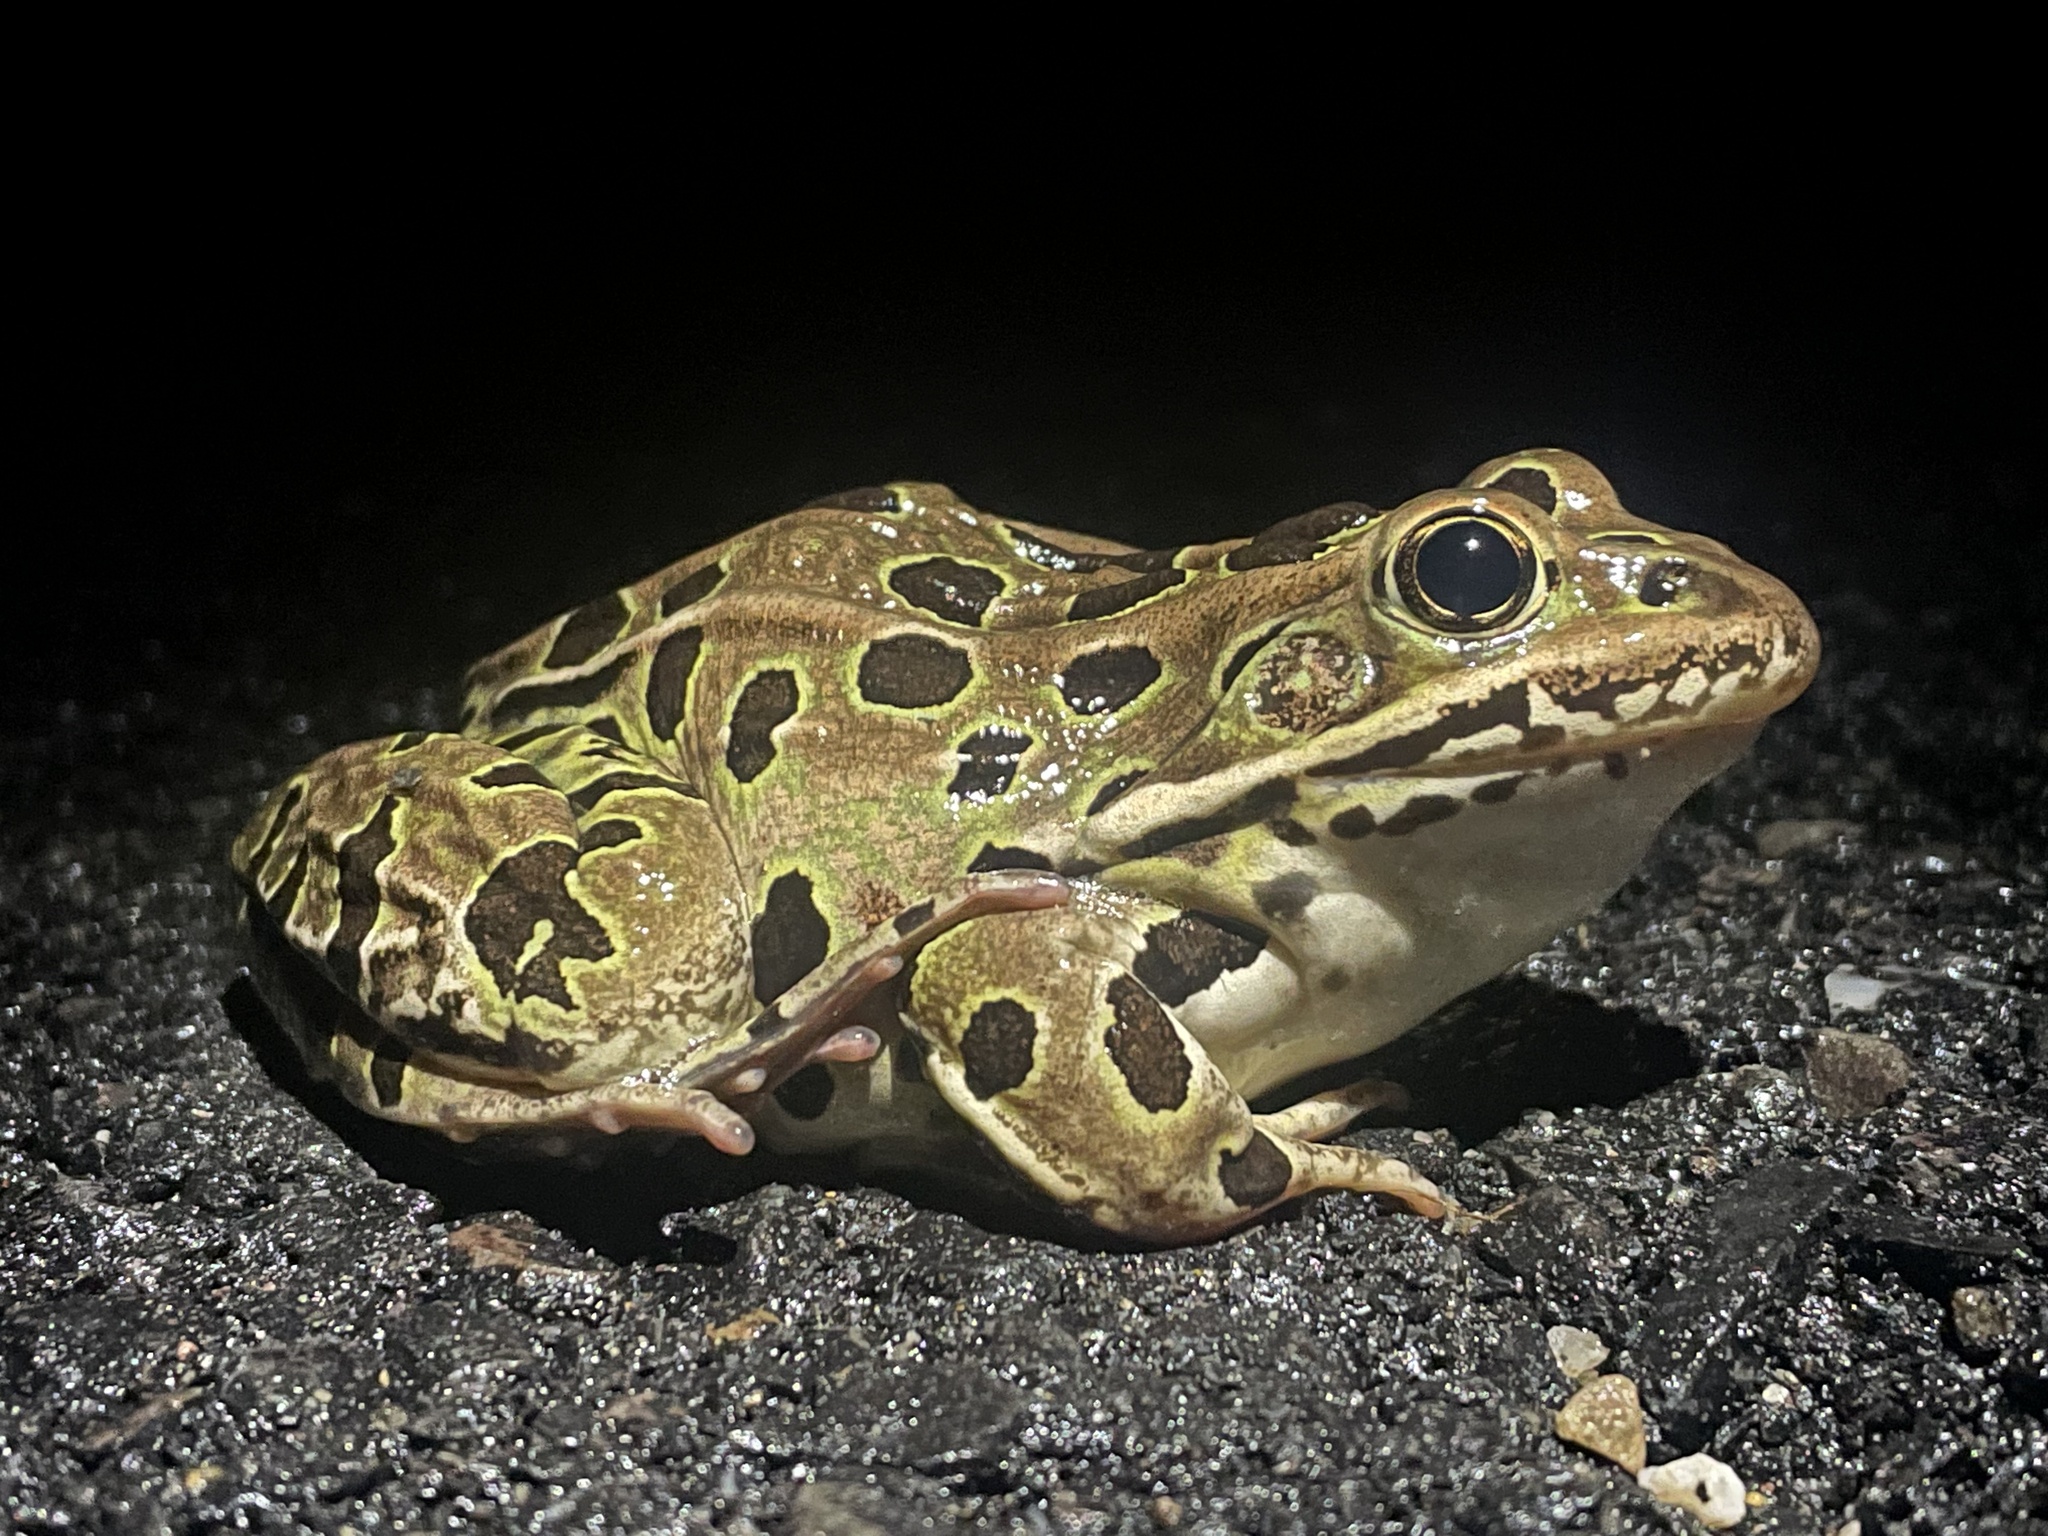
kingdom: Animalia
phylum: Chordata
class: Amphibia
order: Anura
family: Ranidae
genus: Lithobates
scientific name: Lithobates pipiens
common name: Northern leopard frog
